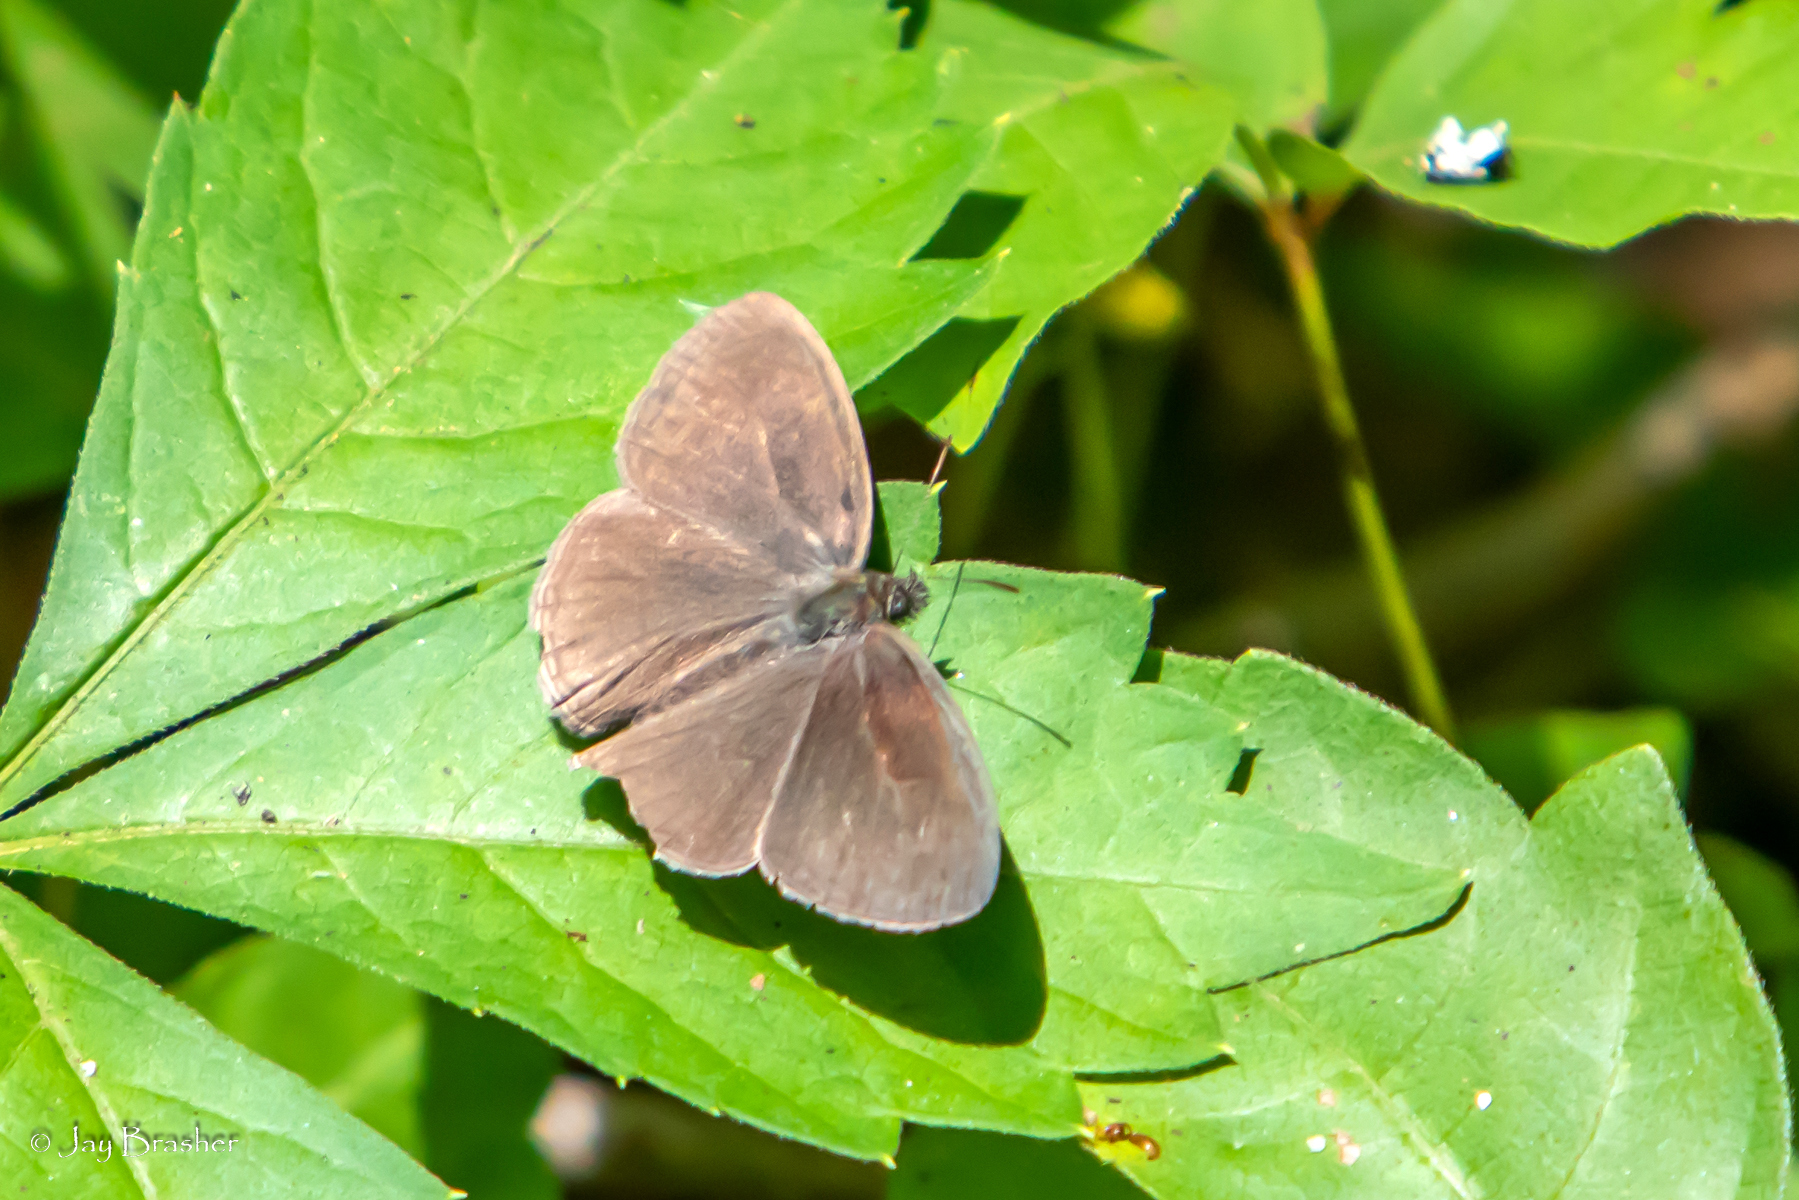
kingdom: Animalia
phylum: Arthropoda
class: Insecta
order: Lepidoptera
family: Nymphalidae
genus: Hermeuptychia
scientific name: Hermeuptychia hermes
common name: Hermes satyr
